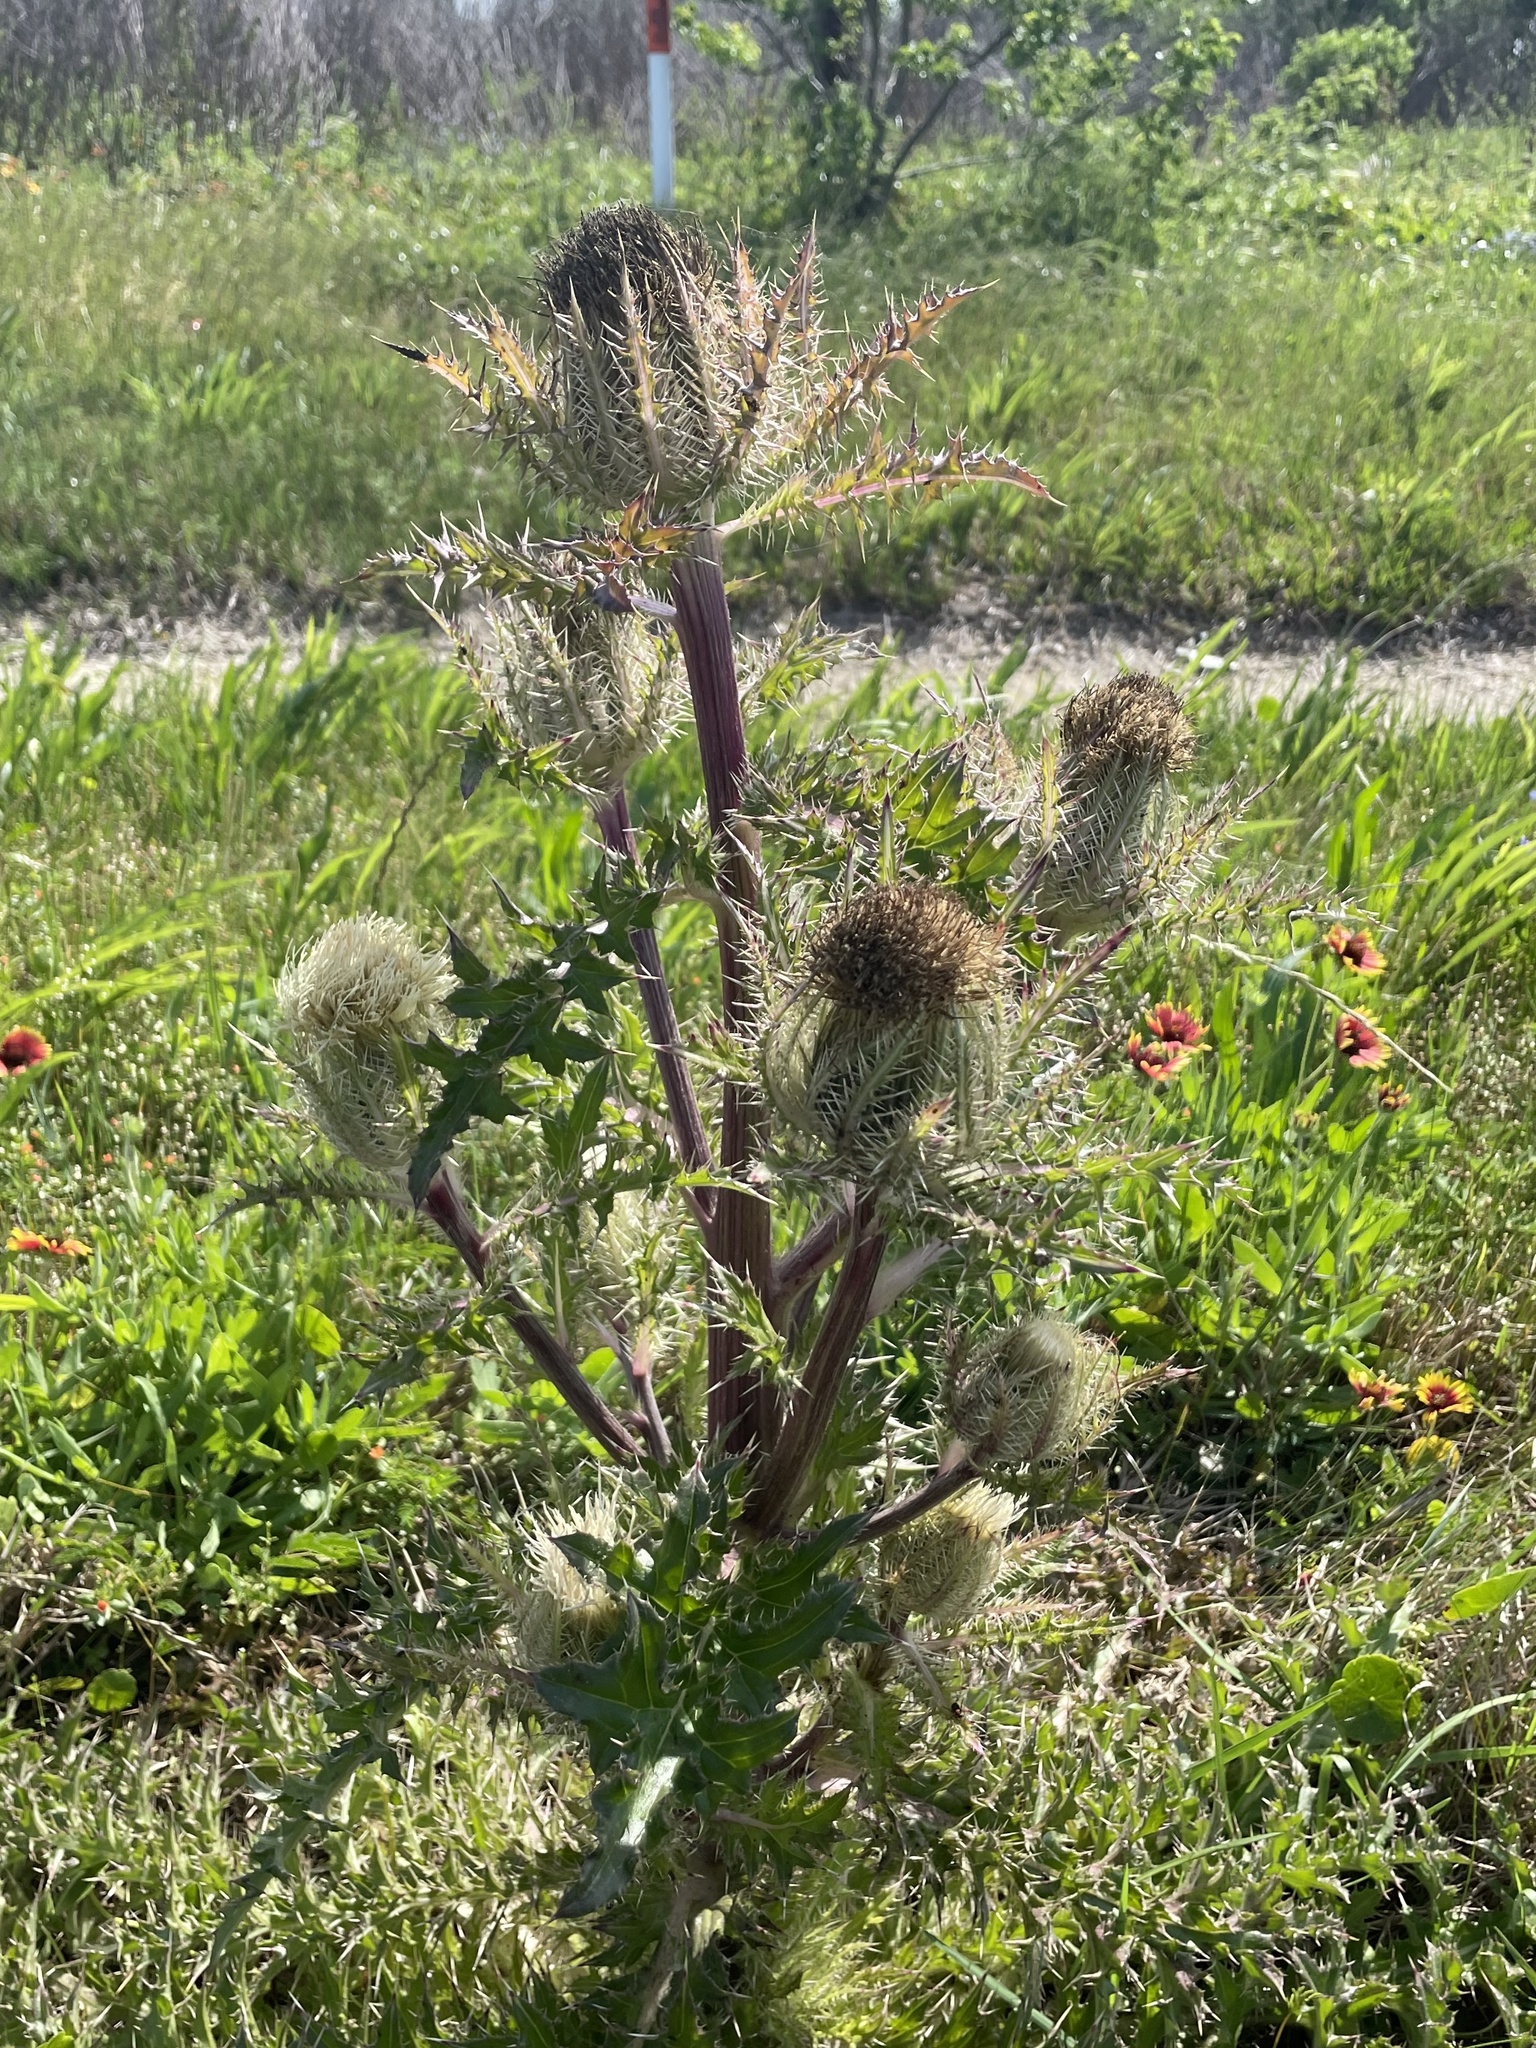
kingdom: Plantae
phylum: Tracheophyta
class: Magnoliopsida
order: Asterales
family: Asteraceae
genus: Cirsium
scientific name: Cirsium horridulum
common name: Bristly thistle
